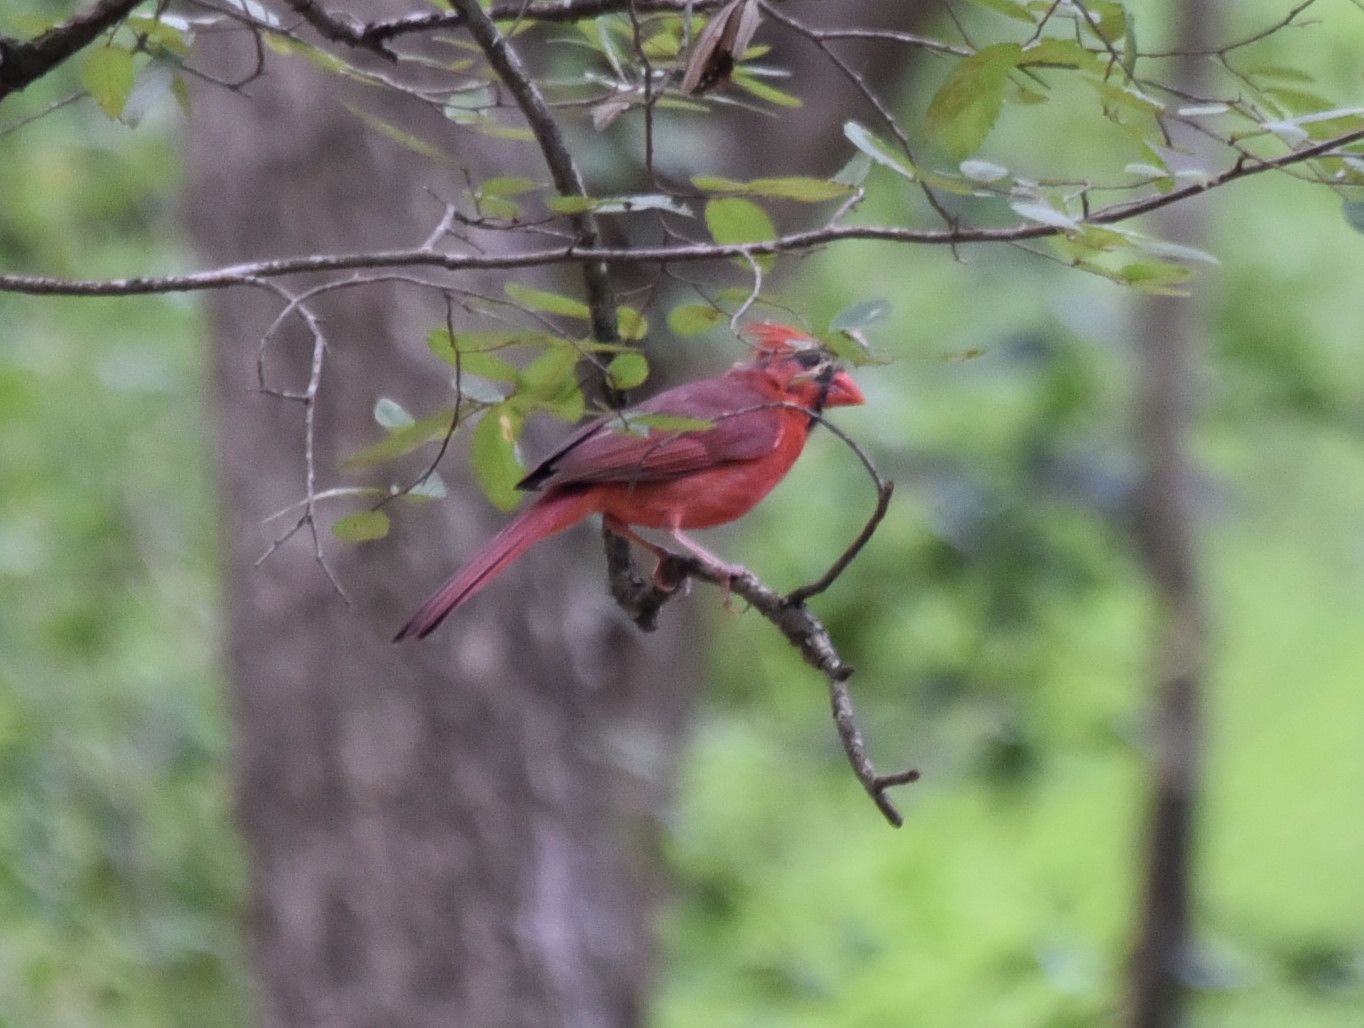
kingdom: Animalia
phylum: Chordata
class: Aves
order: Passeriformes
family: Cardinalidae
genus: Cardinalis
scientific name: Cardinalis cardinalis
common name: Northern cardinal
